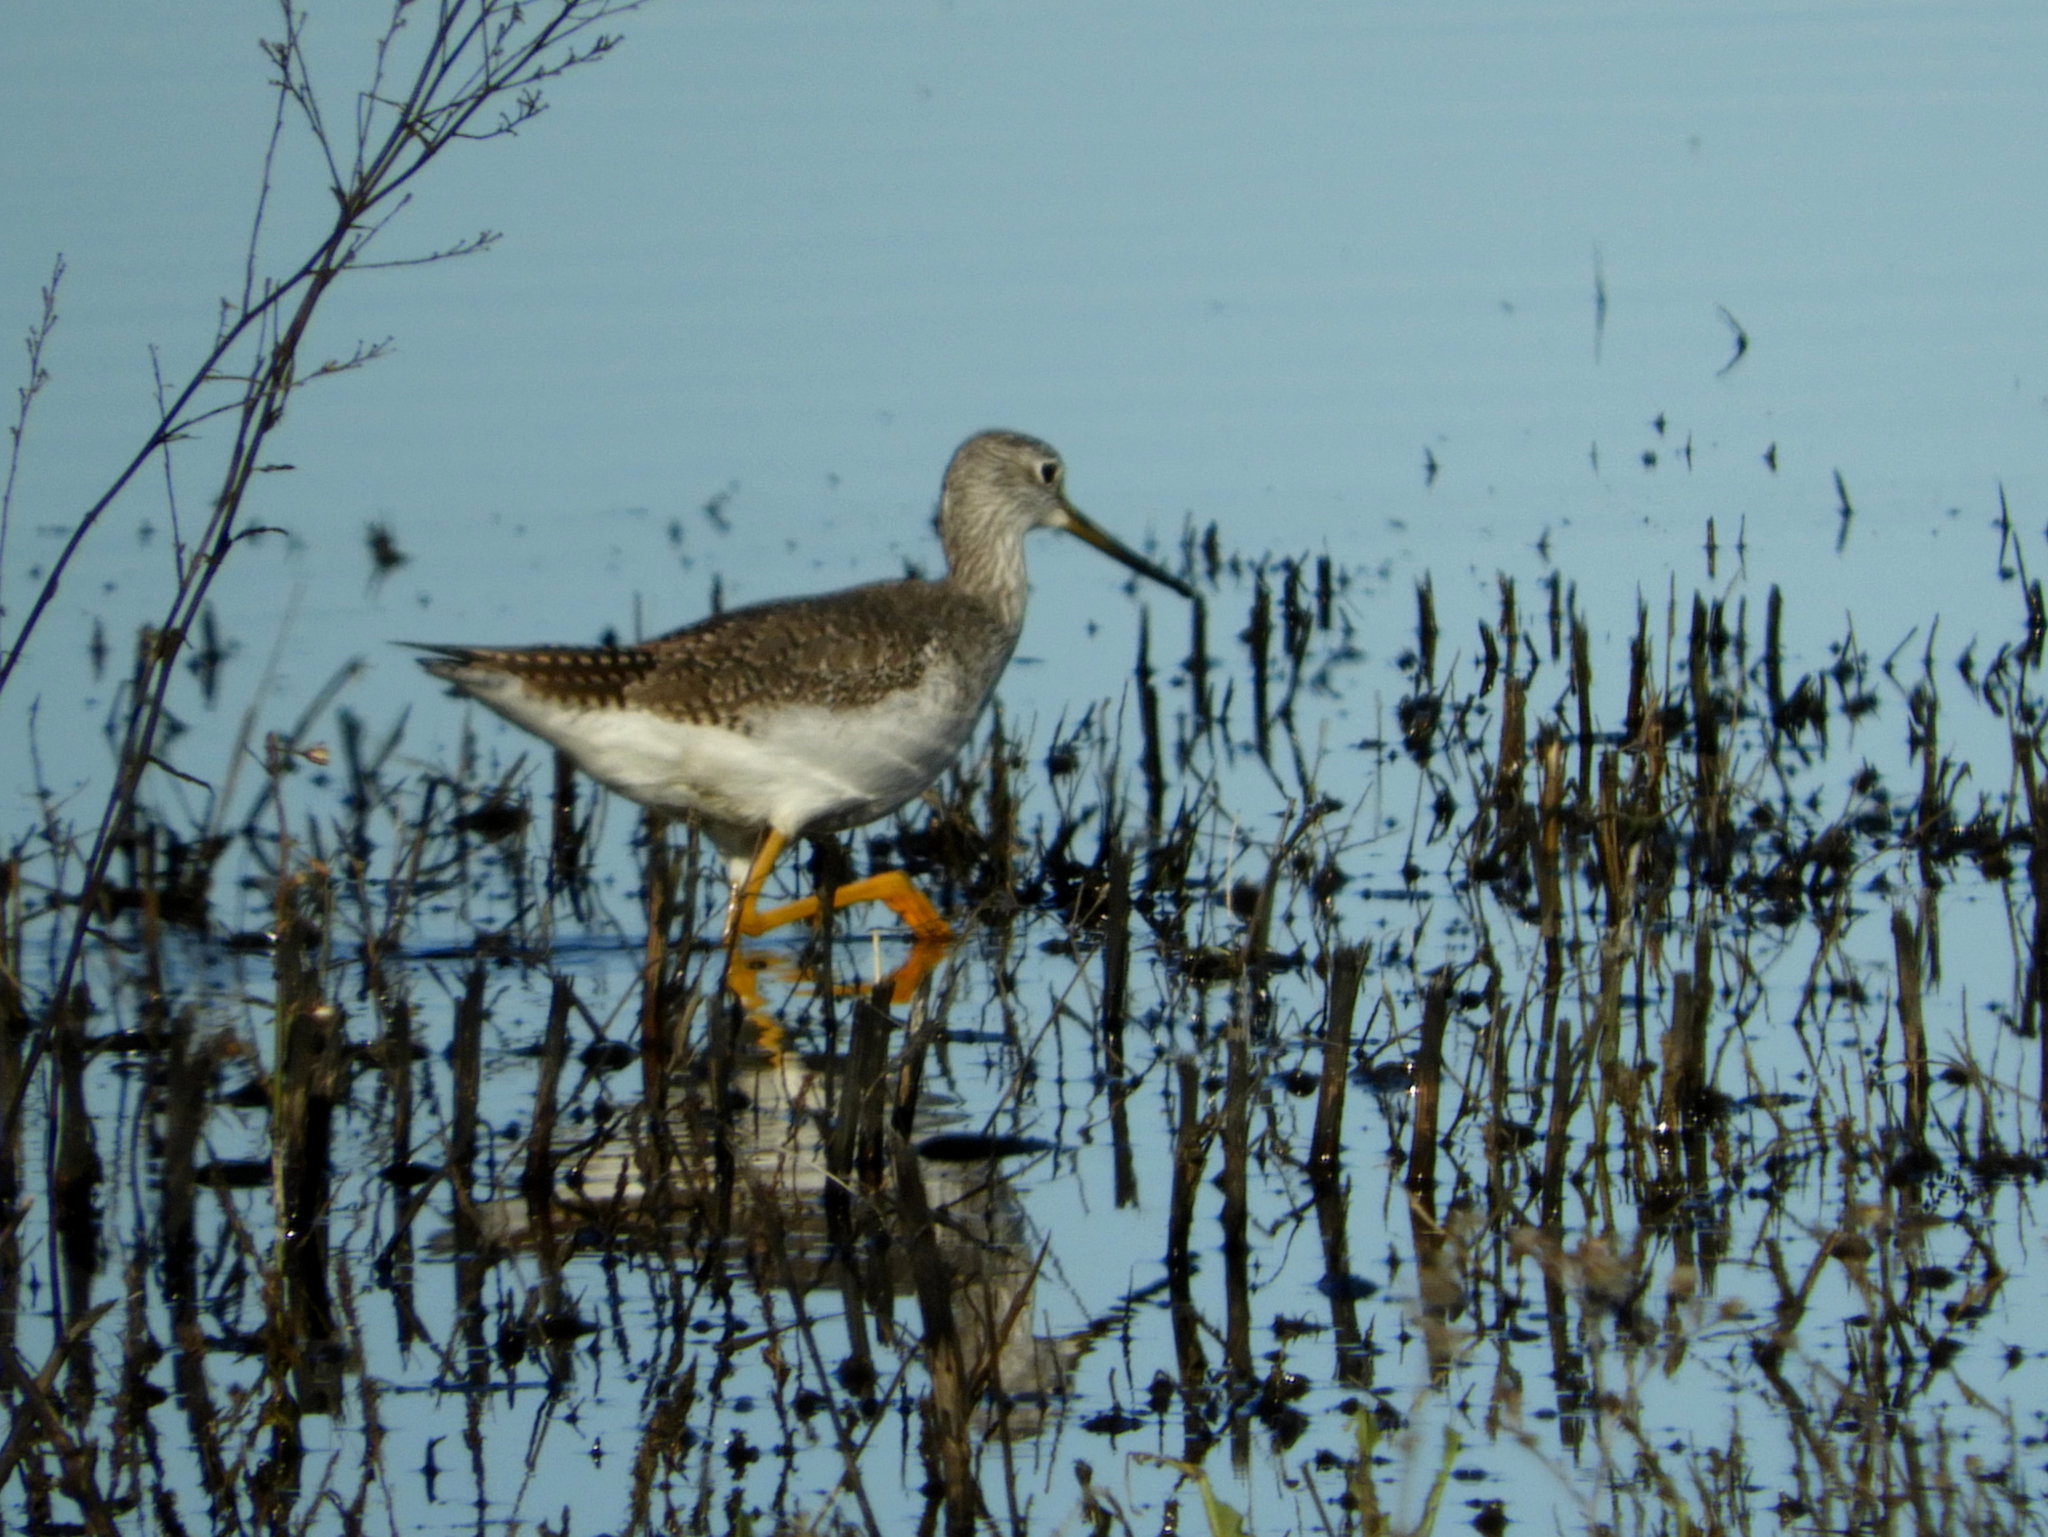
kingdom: Animalia
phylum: Chordata
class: Aves
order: Charadriiformes
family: Scolopacidae
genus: Tringa
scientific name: Tringa melanoleuca
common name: Greater yellowlegs
